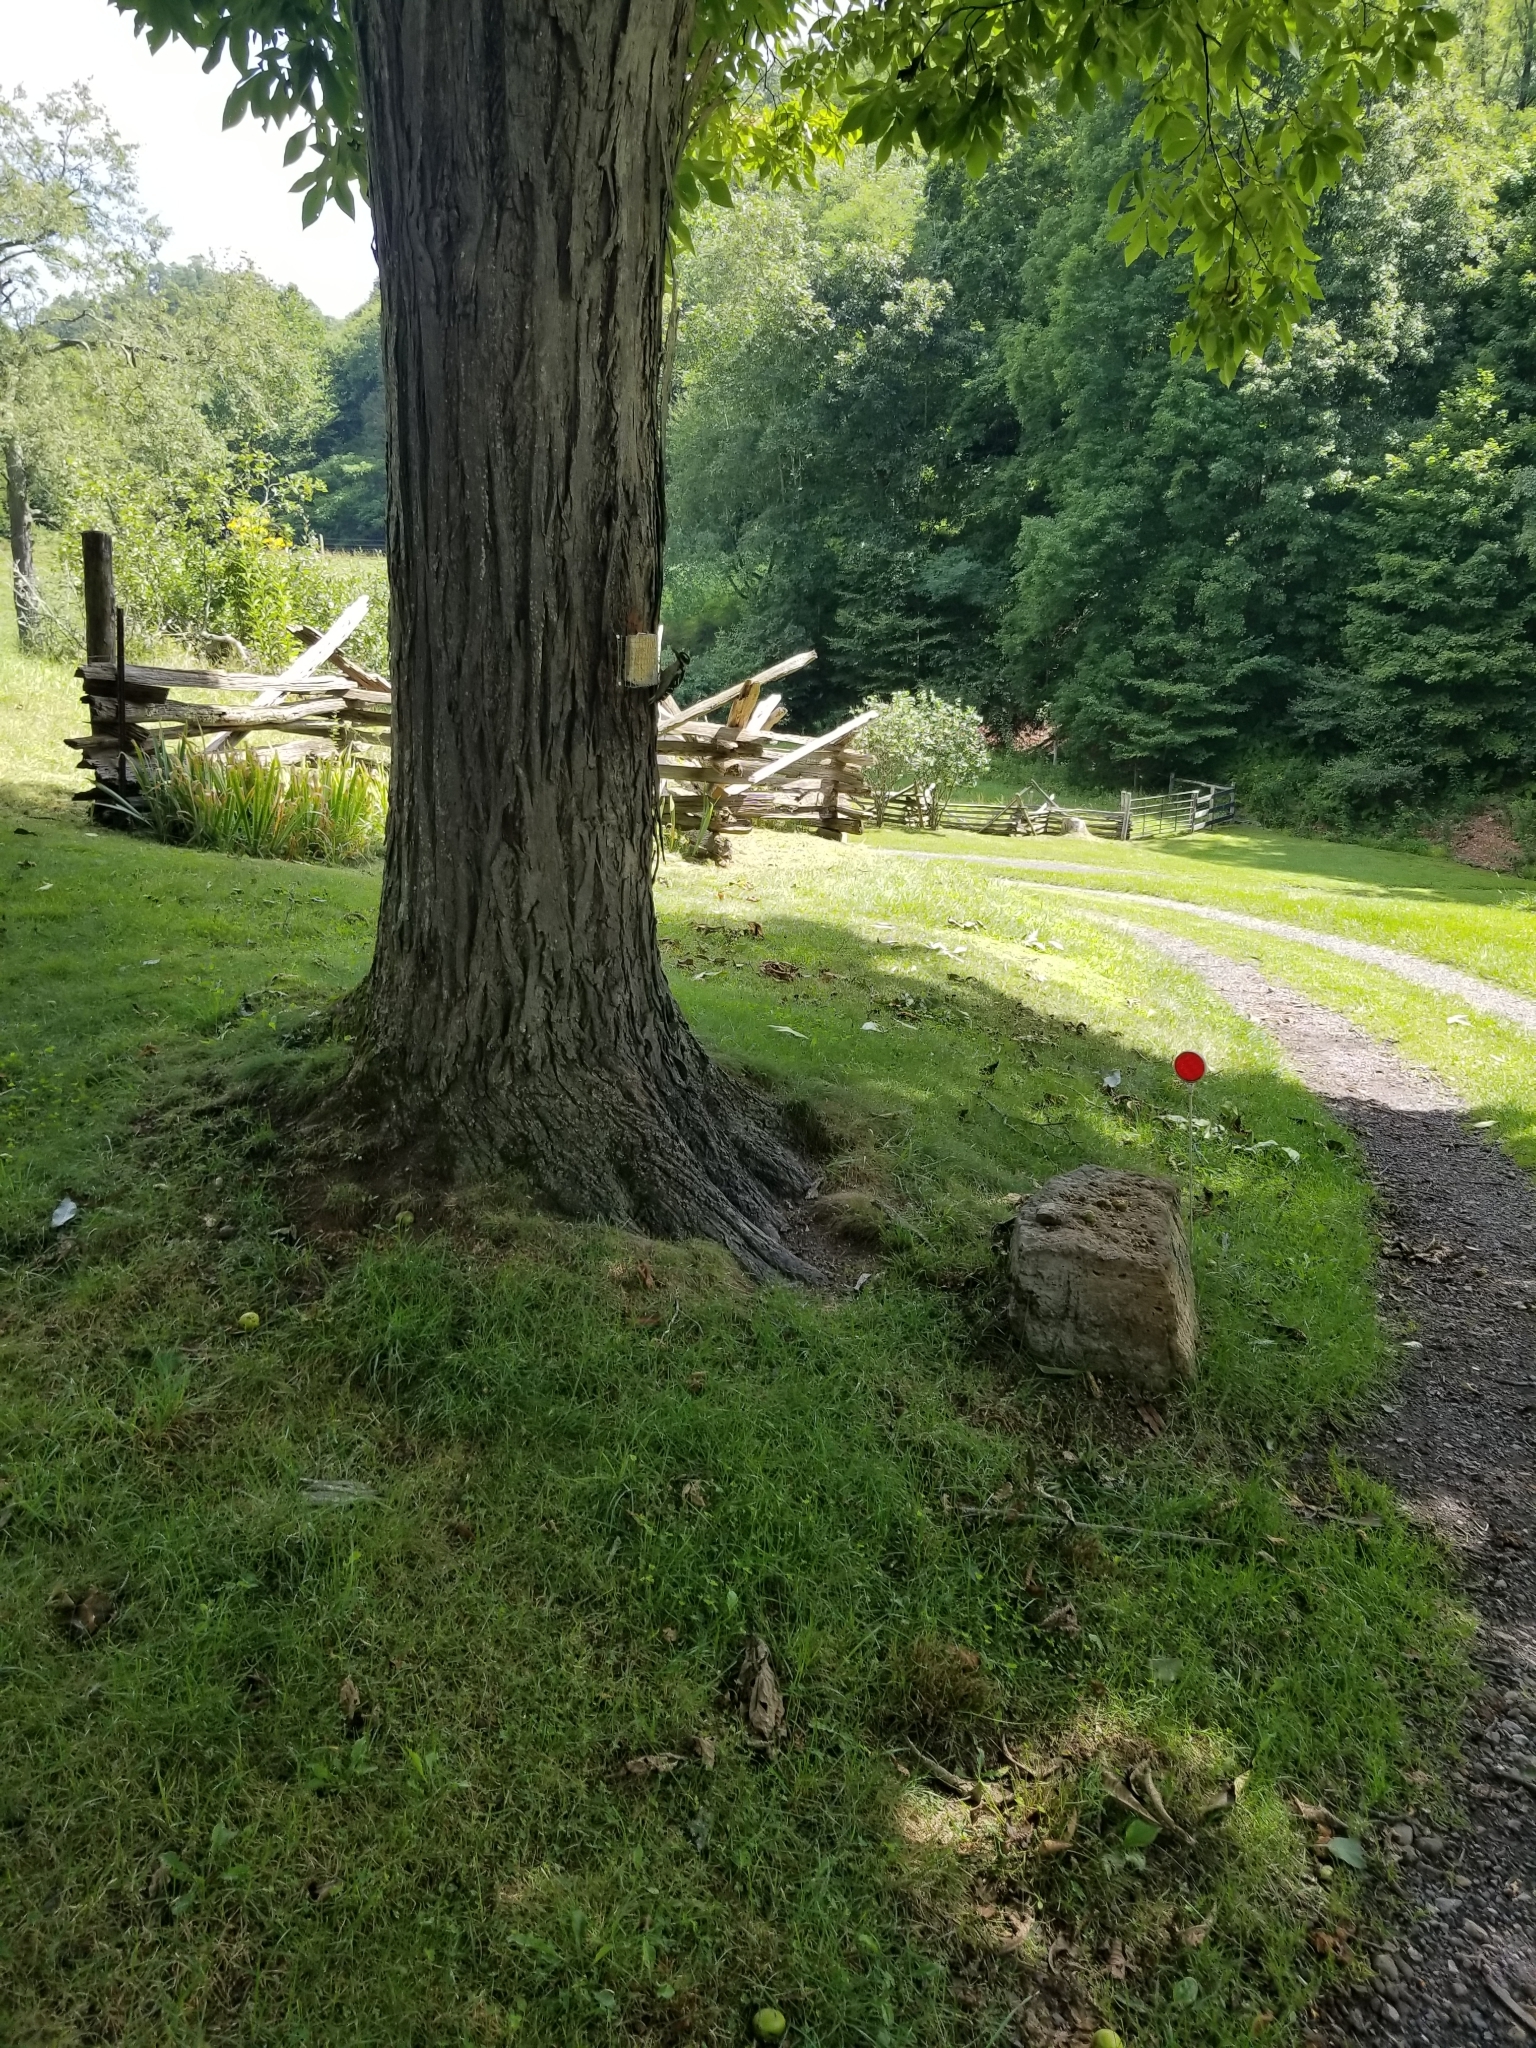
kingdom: Animalia
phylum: Chordata
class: Aves
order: Piciformes
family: Picidae
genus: Leuconotopicus
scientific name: Leuconotopicus villosus
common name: Hairy woodpecker
